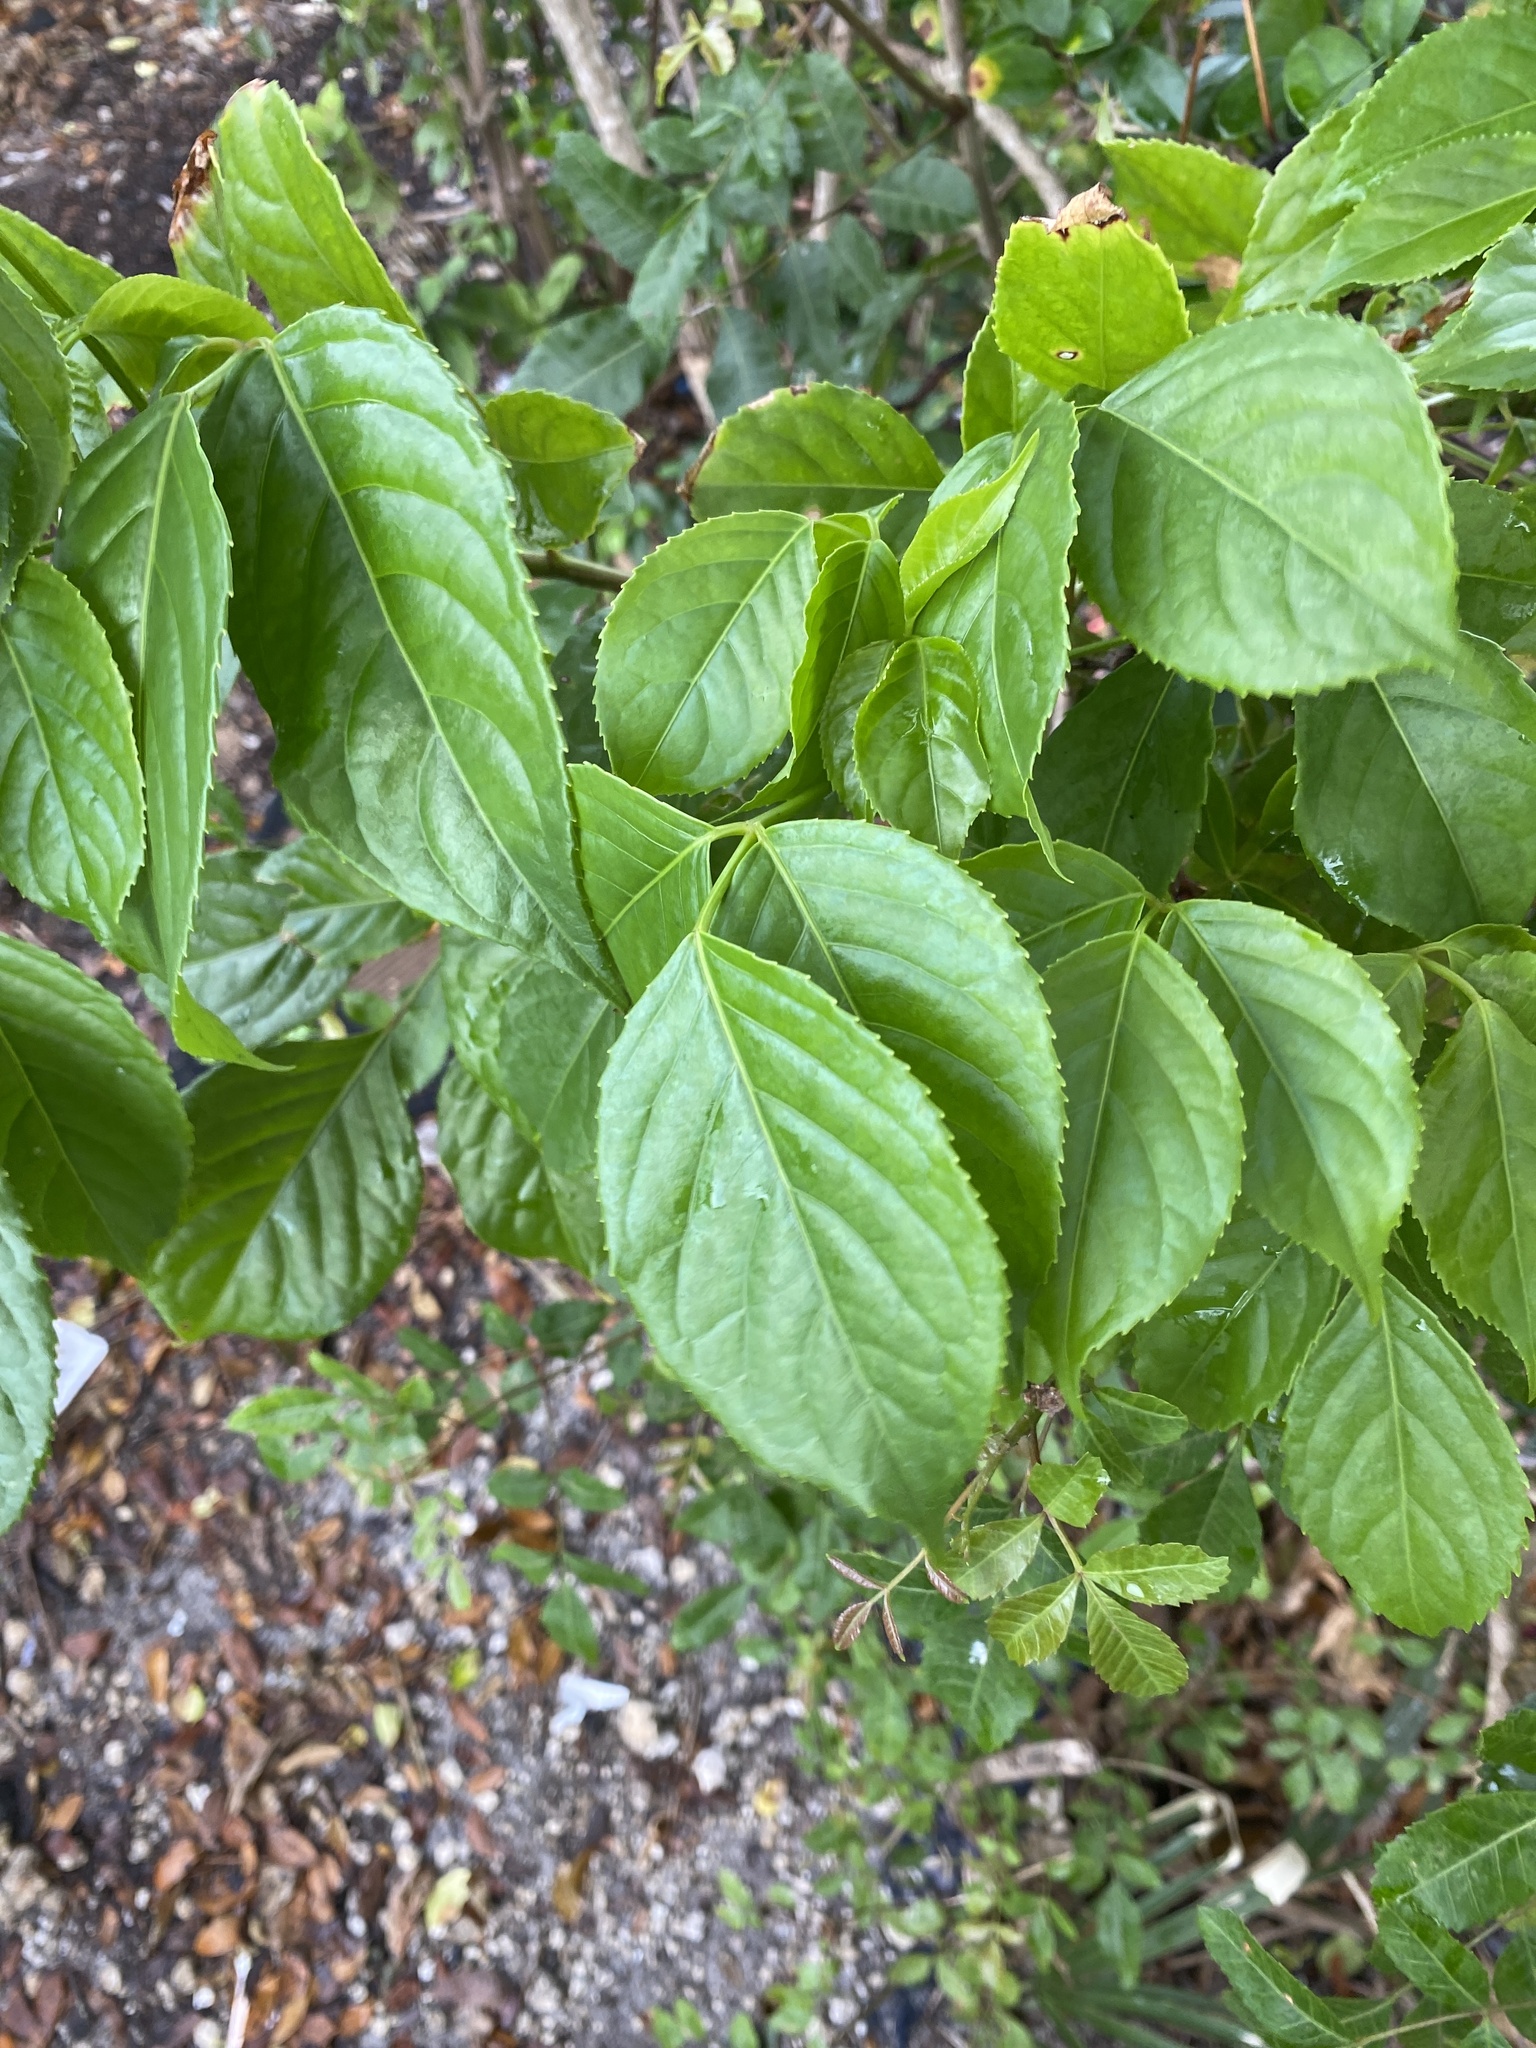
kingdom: Plantae
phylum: Tracheophyta
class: Magnoliopsida
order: Malpighiales
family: Phyllanthaceae
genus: Bischofia
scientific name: Bischofia javanica
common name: Javanese bishopwood
